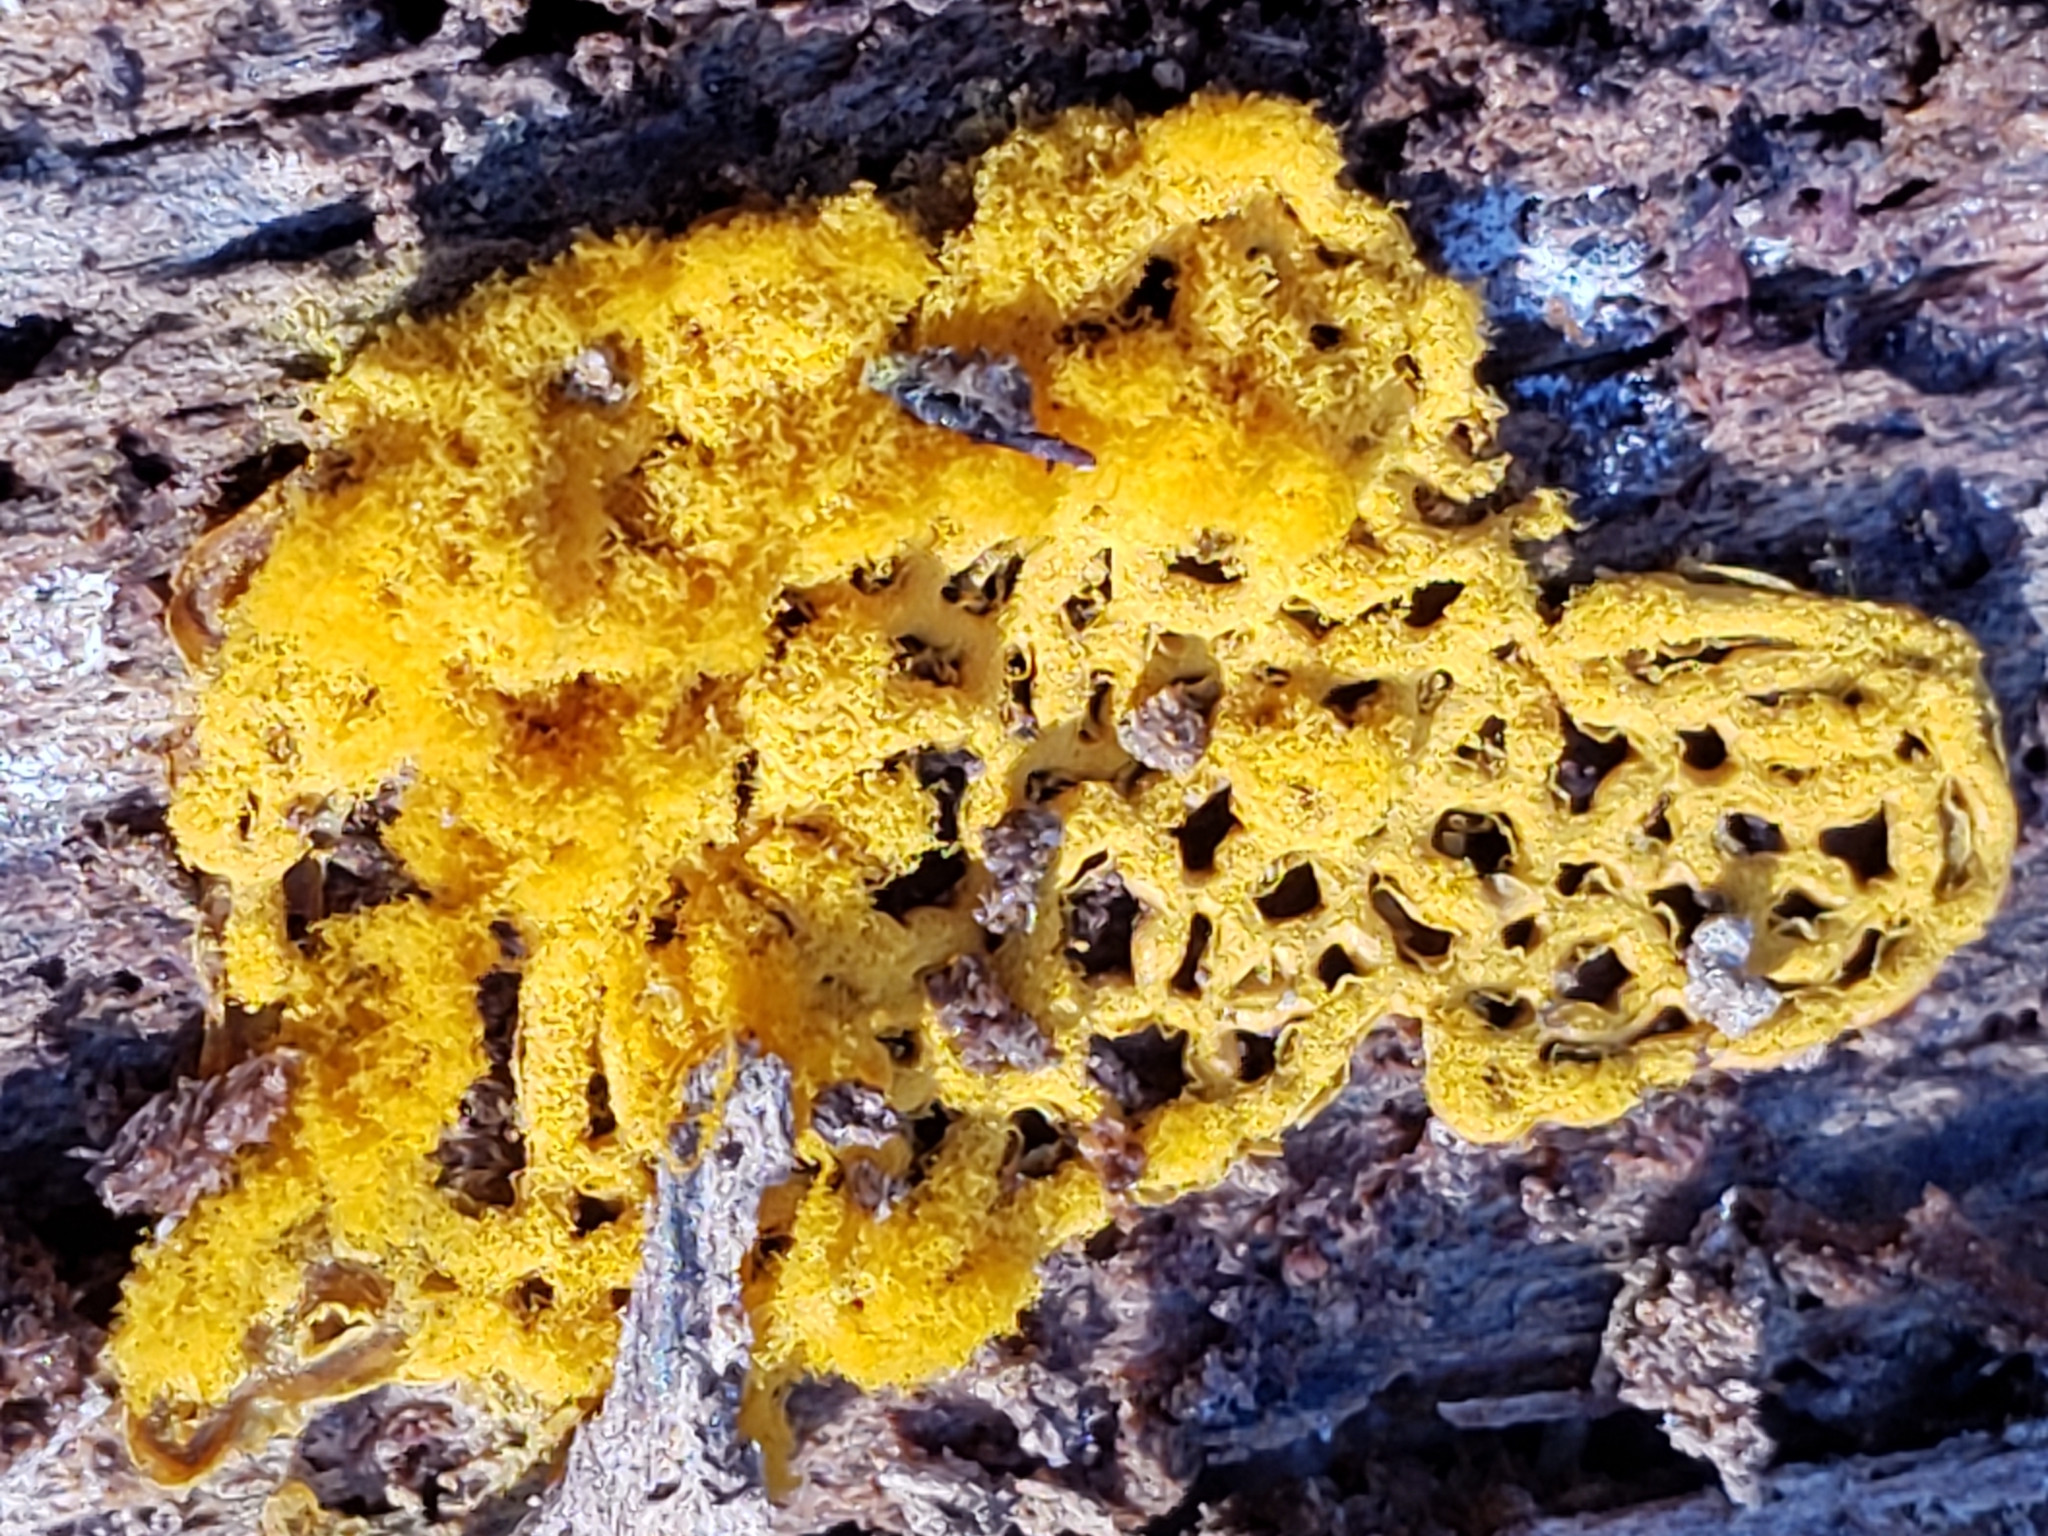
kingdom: Protozoa
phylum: Mycetozoa
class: Myxomycetes
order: Trichiales
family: Arcyriaceae
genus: Hemitrichia
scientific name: Hemitrichia serpula
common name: Pretzel slime mold
